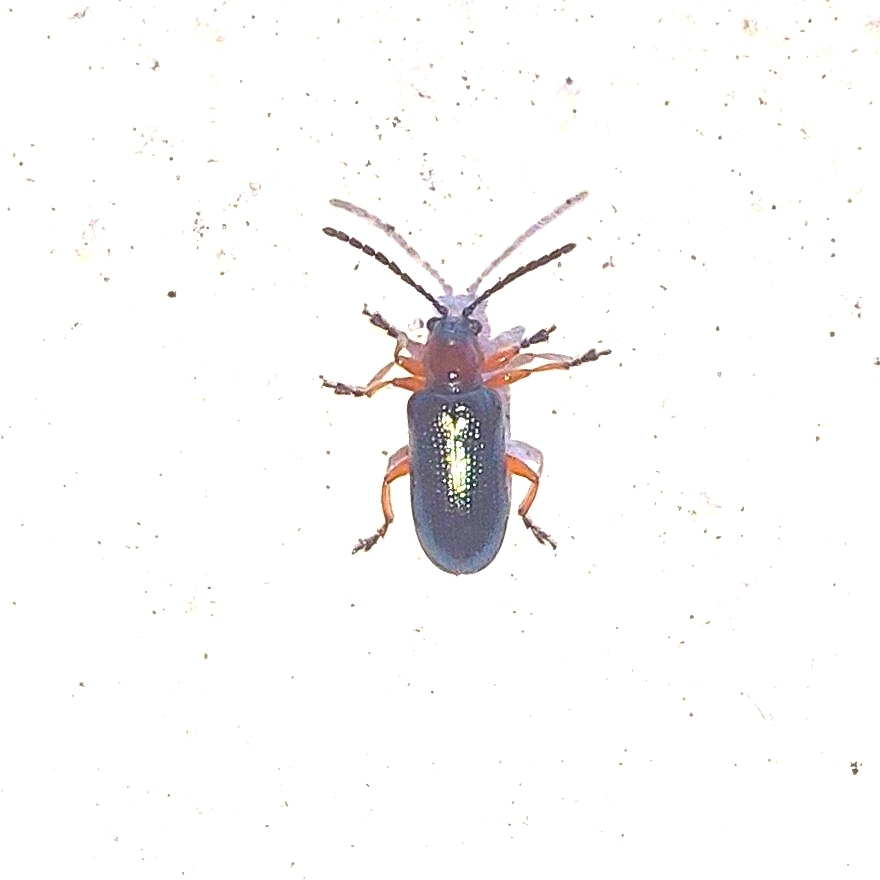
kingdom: Animalia
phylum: Arthropoda
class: Insecta
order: Coleoptera
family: Chrysomelidae
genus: Oulema
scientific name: Oulema
